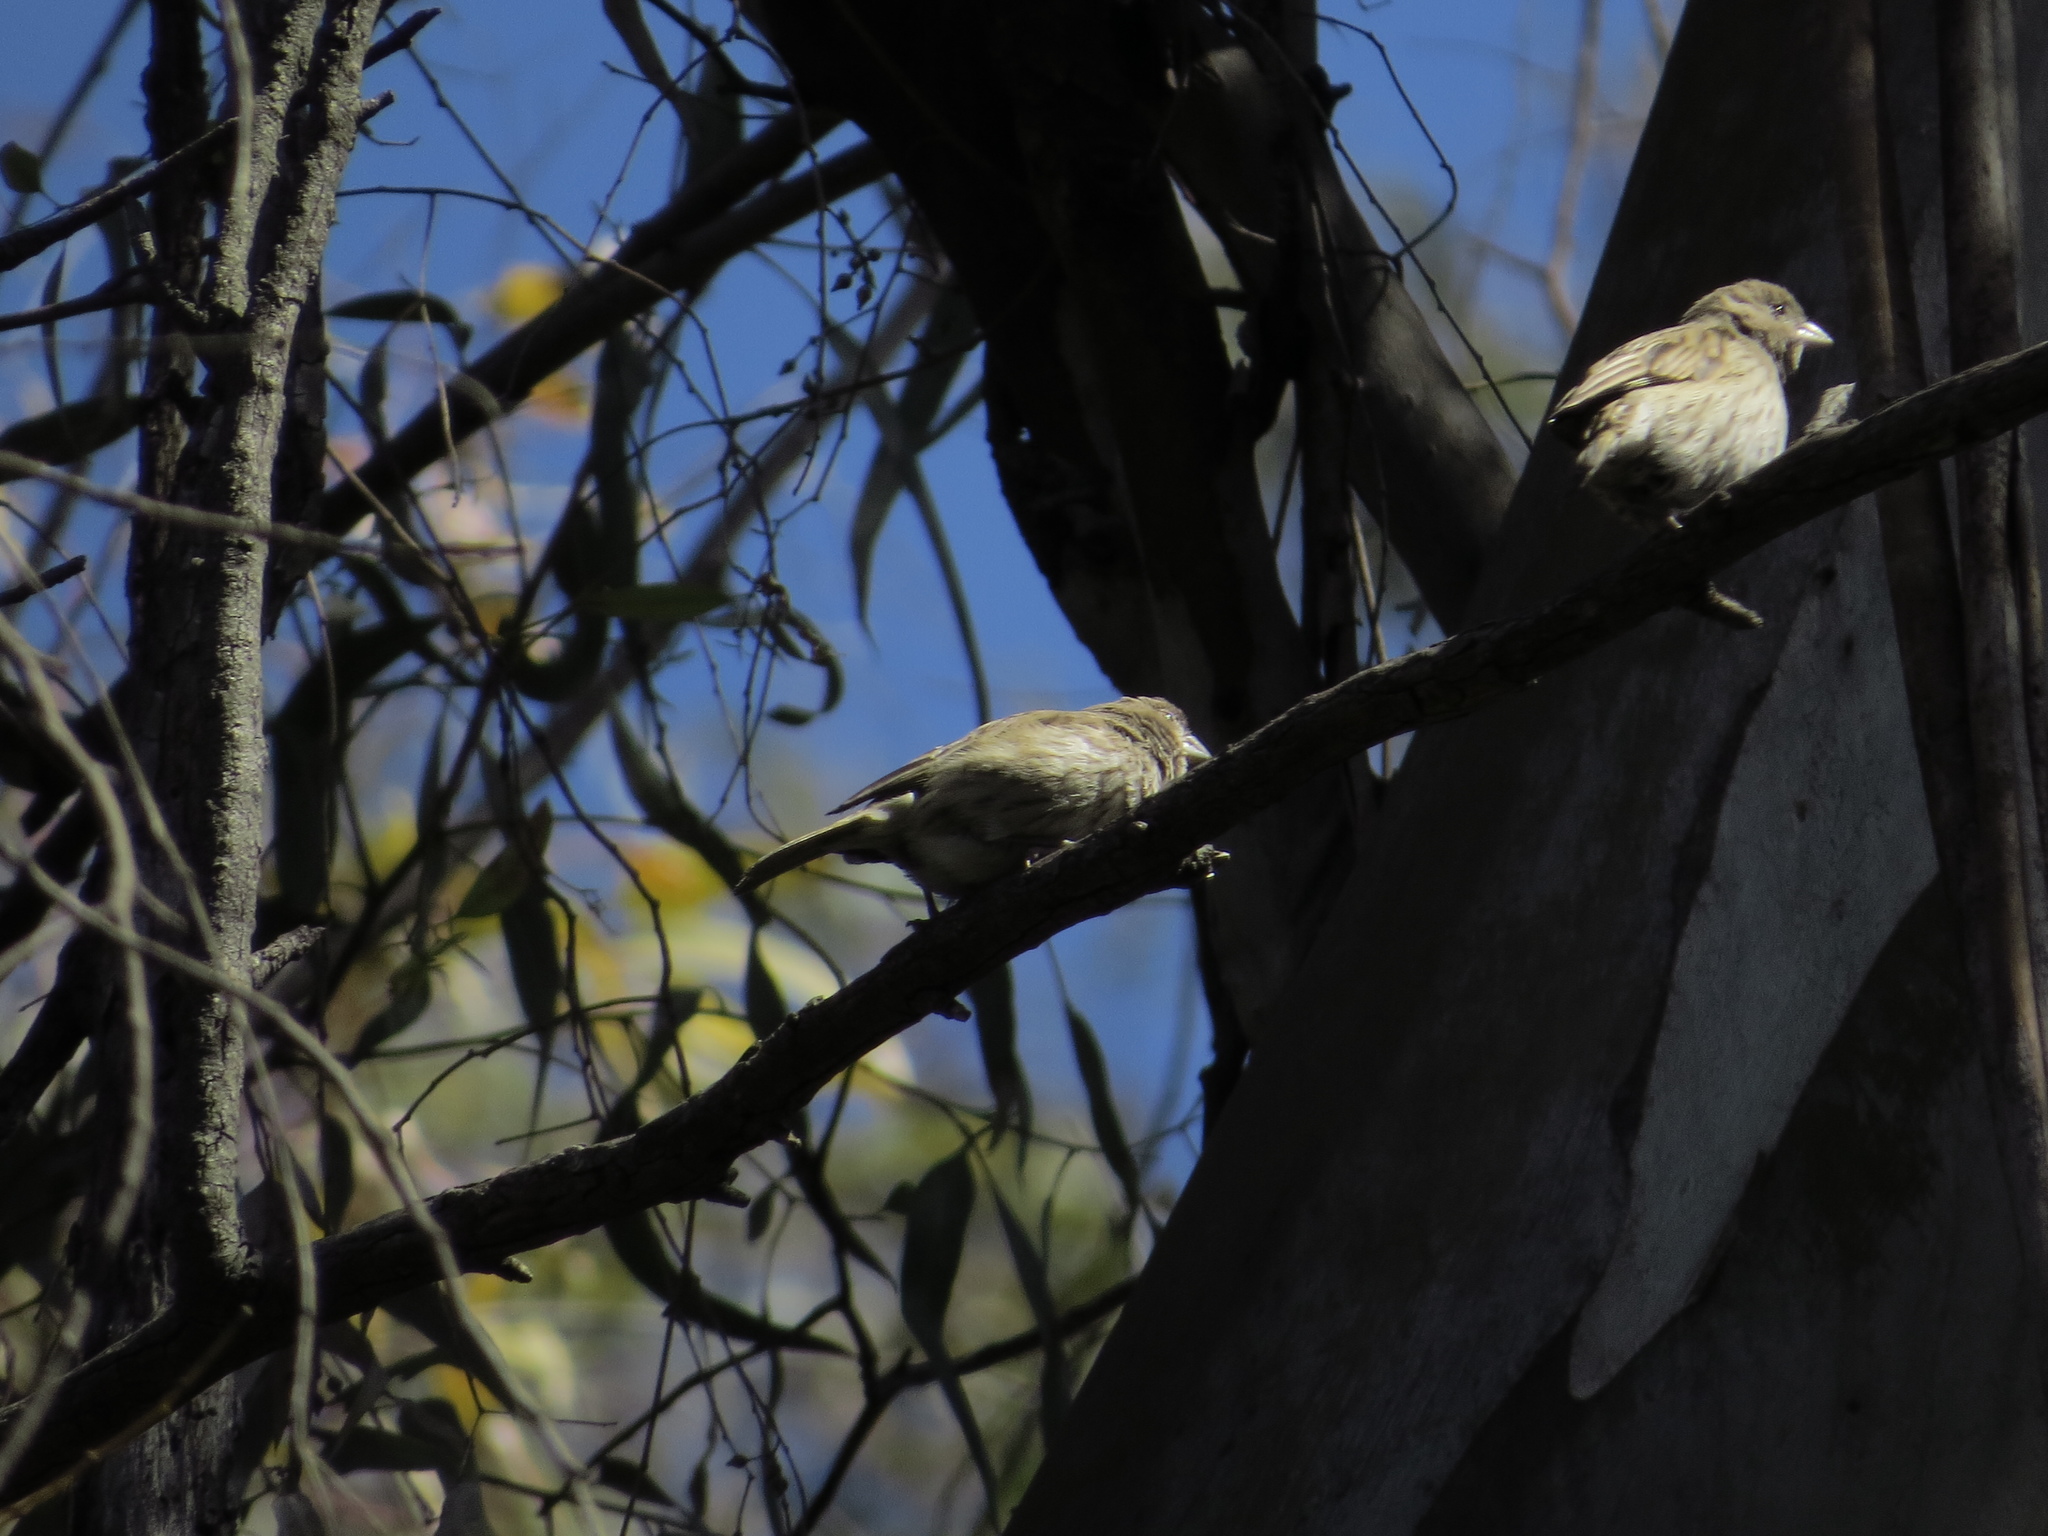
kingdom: Animalia
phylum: Chordata
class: Aves
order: Passeriformes
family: Thraupidae
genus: Sicalis
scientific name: Sicalis flaveola
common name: Saffron finch
